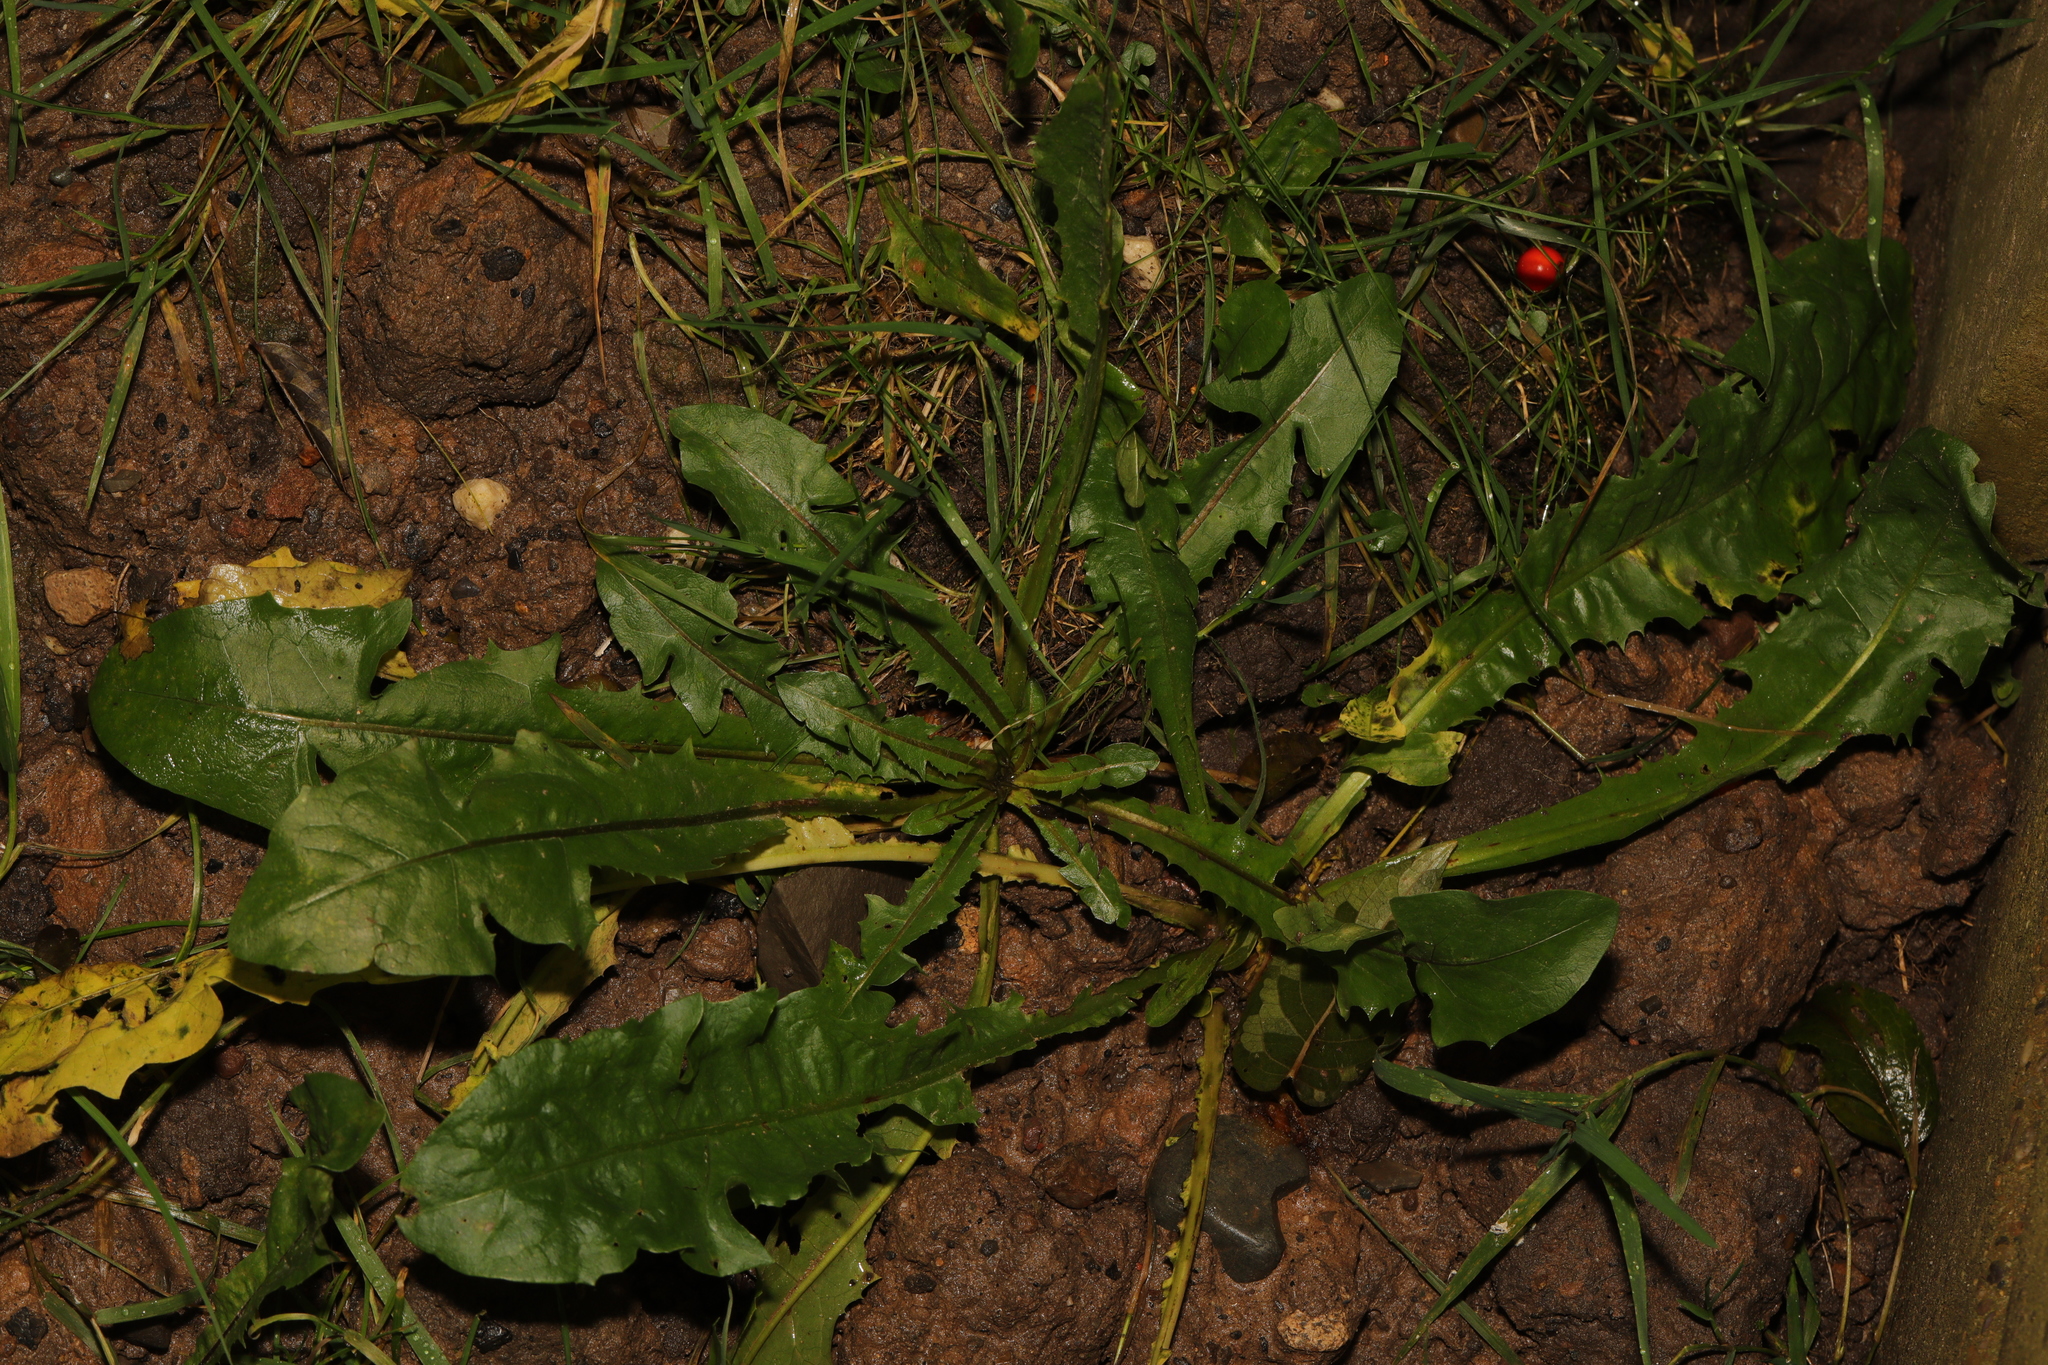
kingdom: Plantae
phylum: Tracheophyta
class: Magnoliopsida
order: Asterales
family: Asteraceae
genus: Taraxacum
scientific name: Taraxacum officinale
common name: Common dandelion
